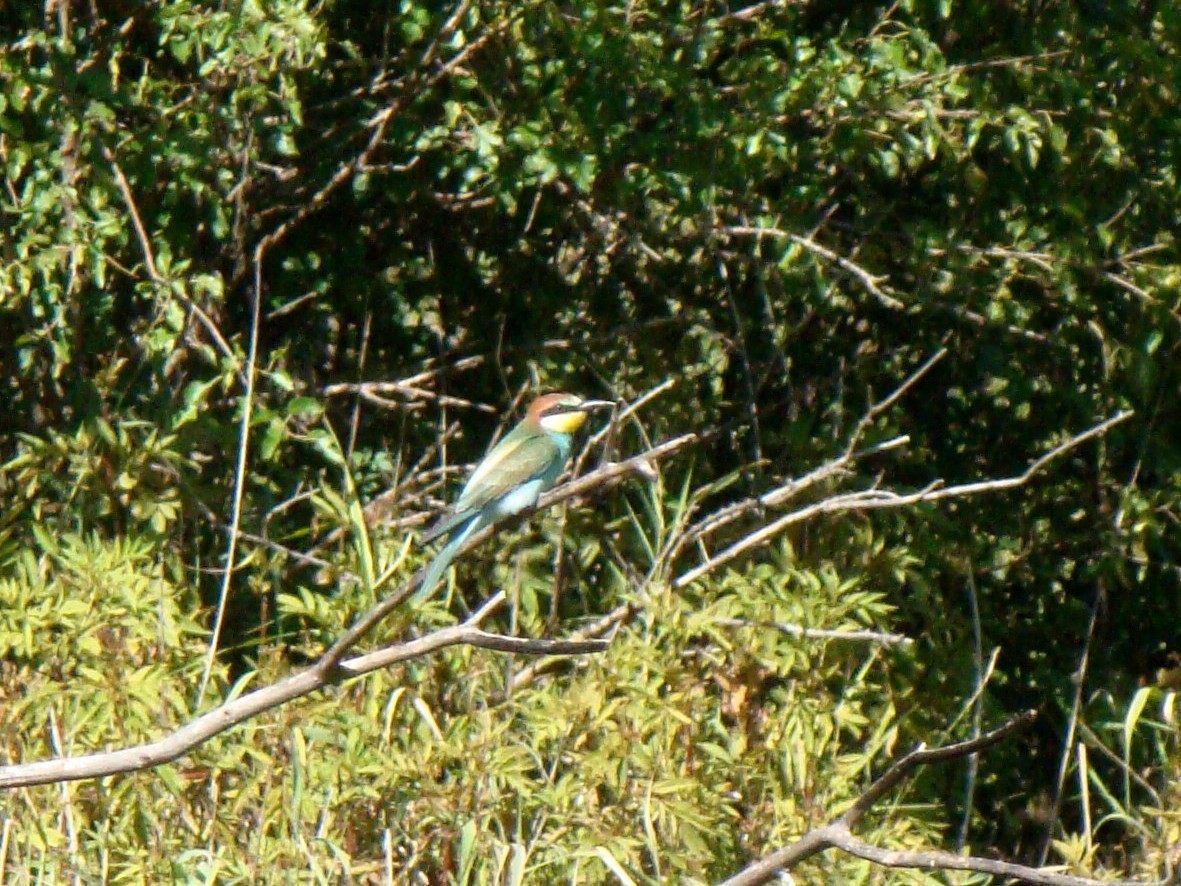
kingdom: Animalia
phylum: Chordata
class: Aves
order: Coraciiformes
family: Meropidae
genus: Merops
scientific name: Merops apiaster
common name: European bee-eater
